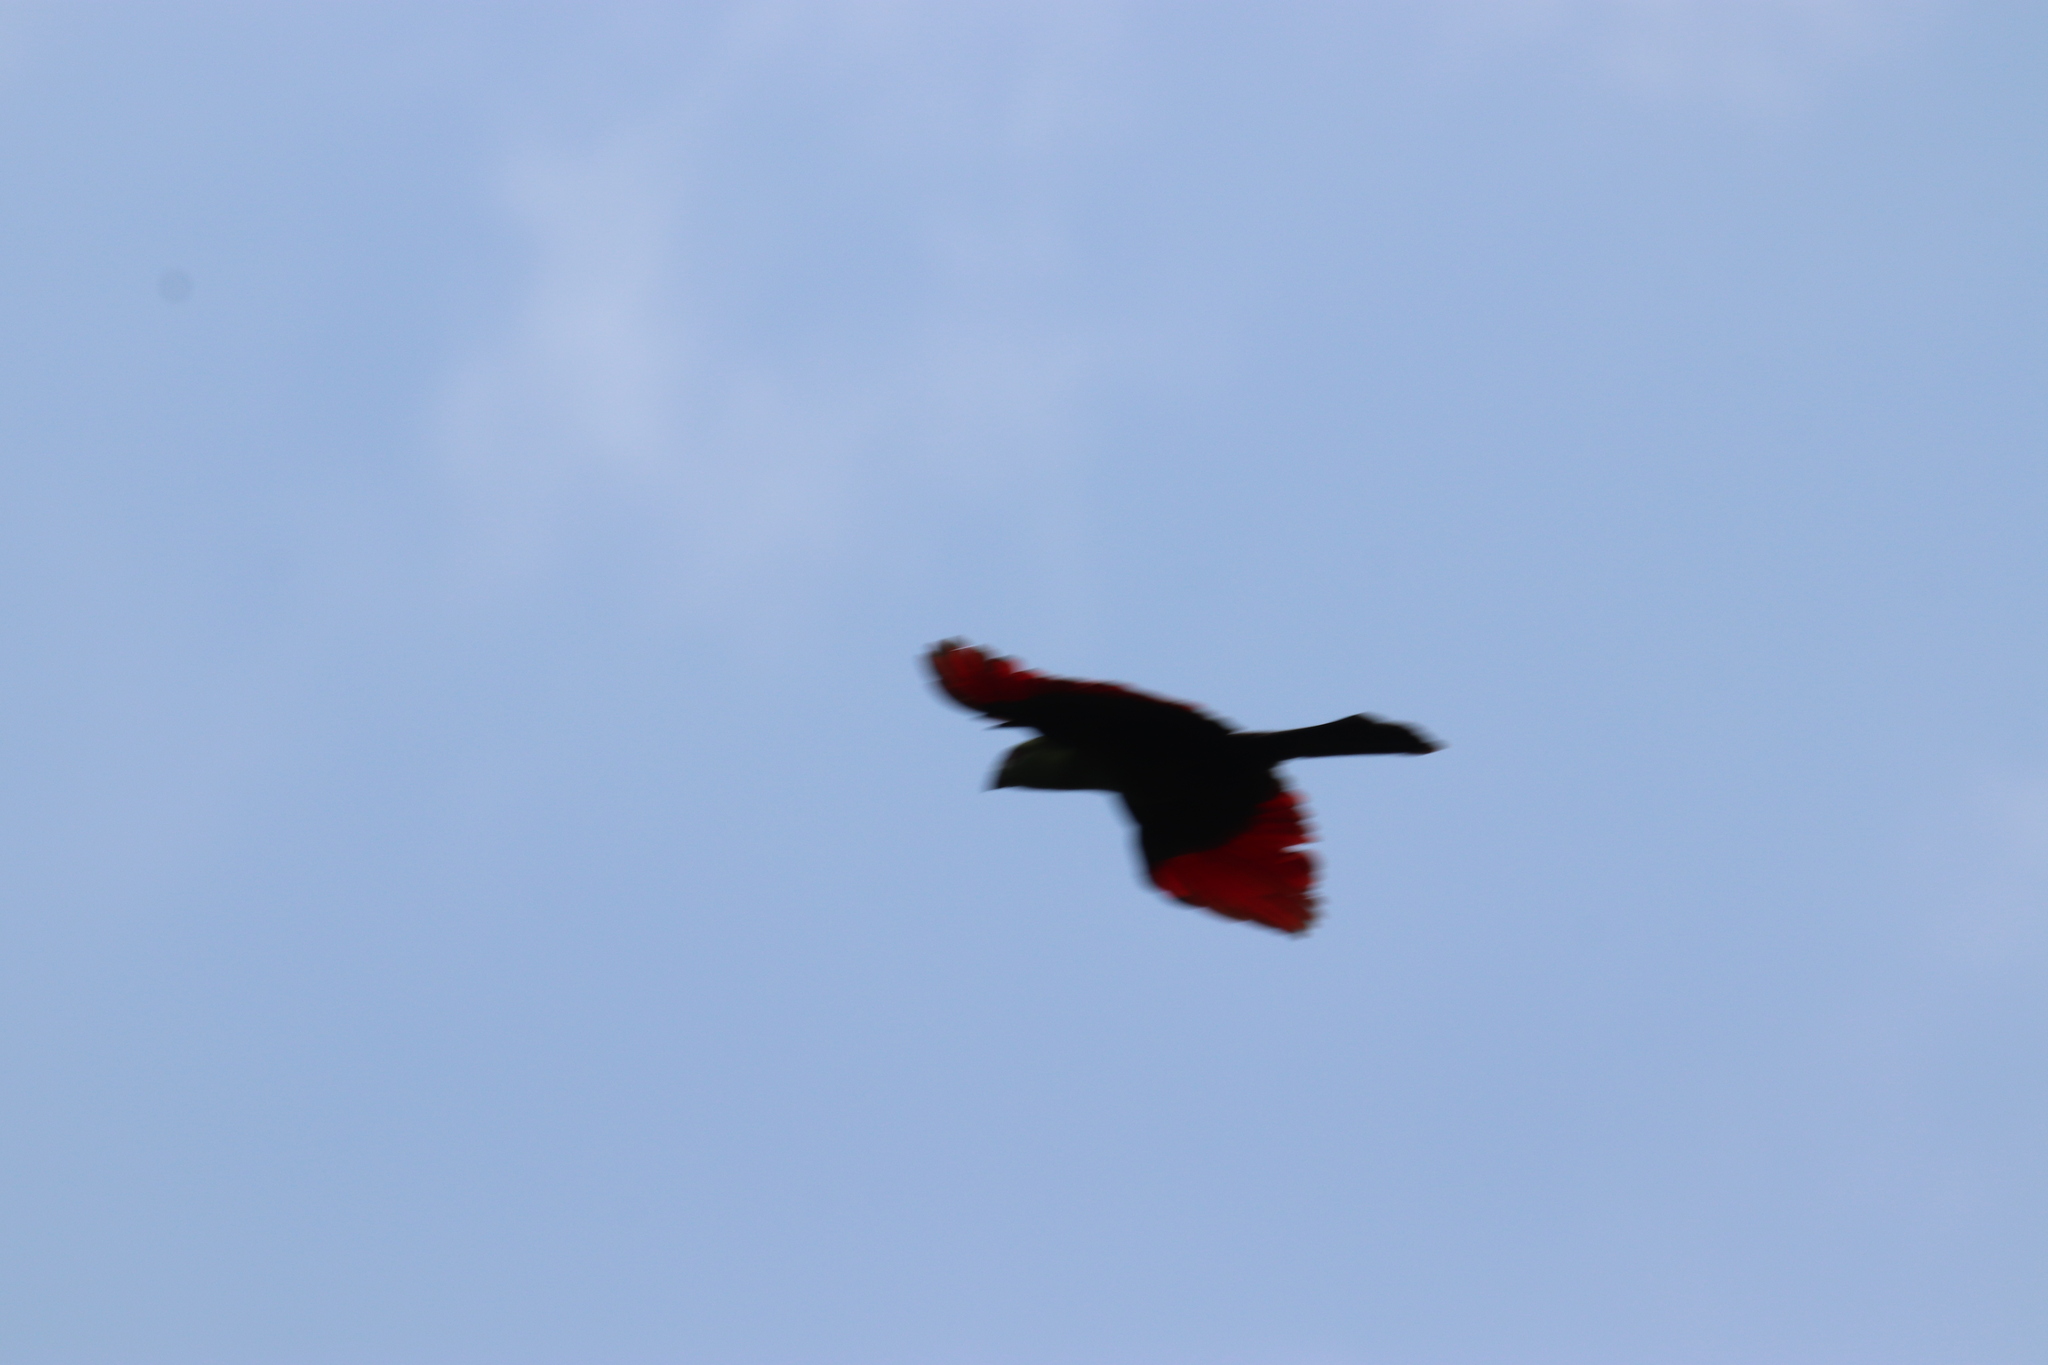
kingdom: Animalia
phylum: Chordata
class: Aves
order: Musophagiformes
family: Musophagidae
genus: Tauraco
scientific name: Tauraco persa
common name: Guinea turaco
